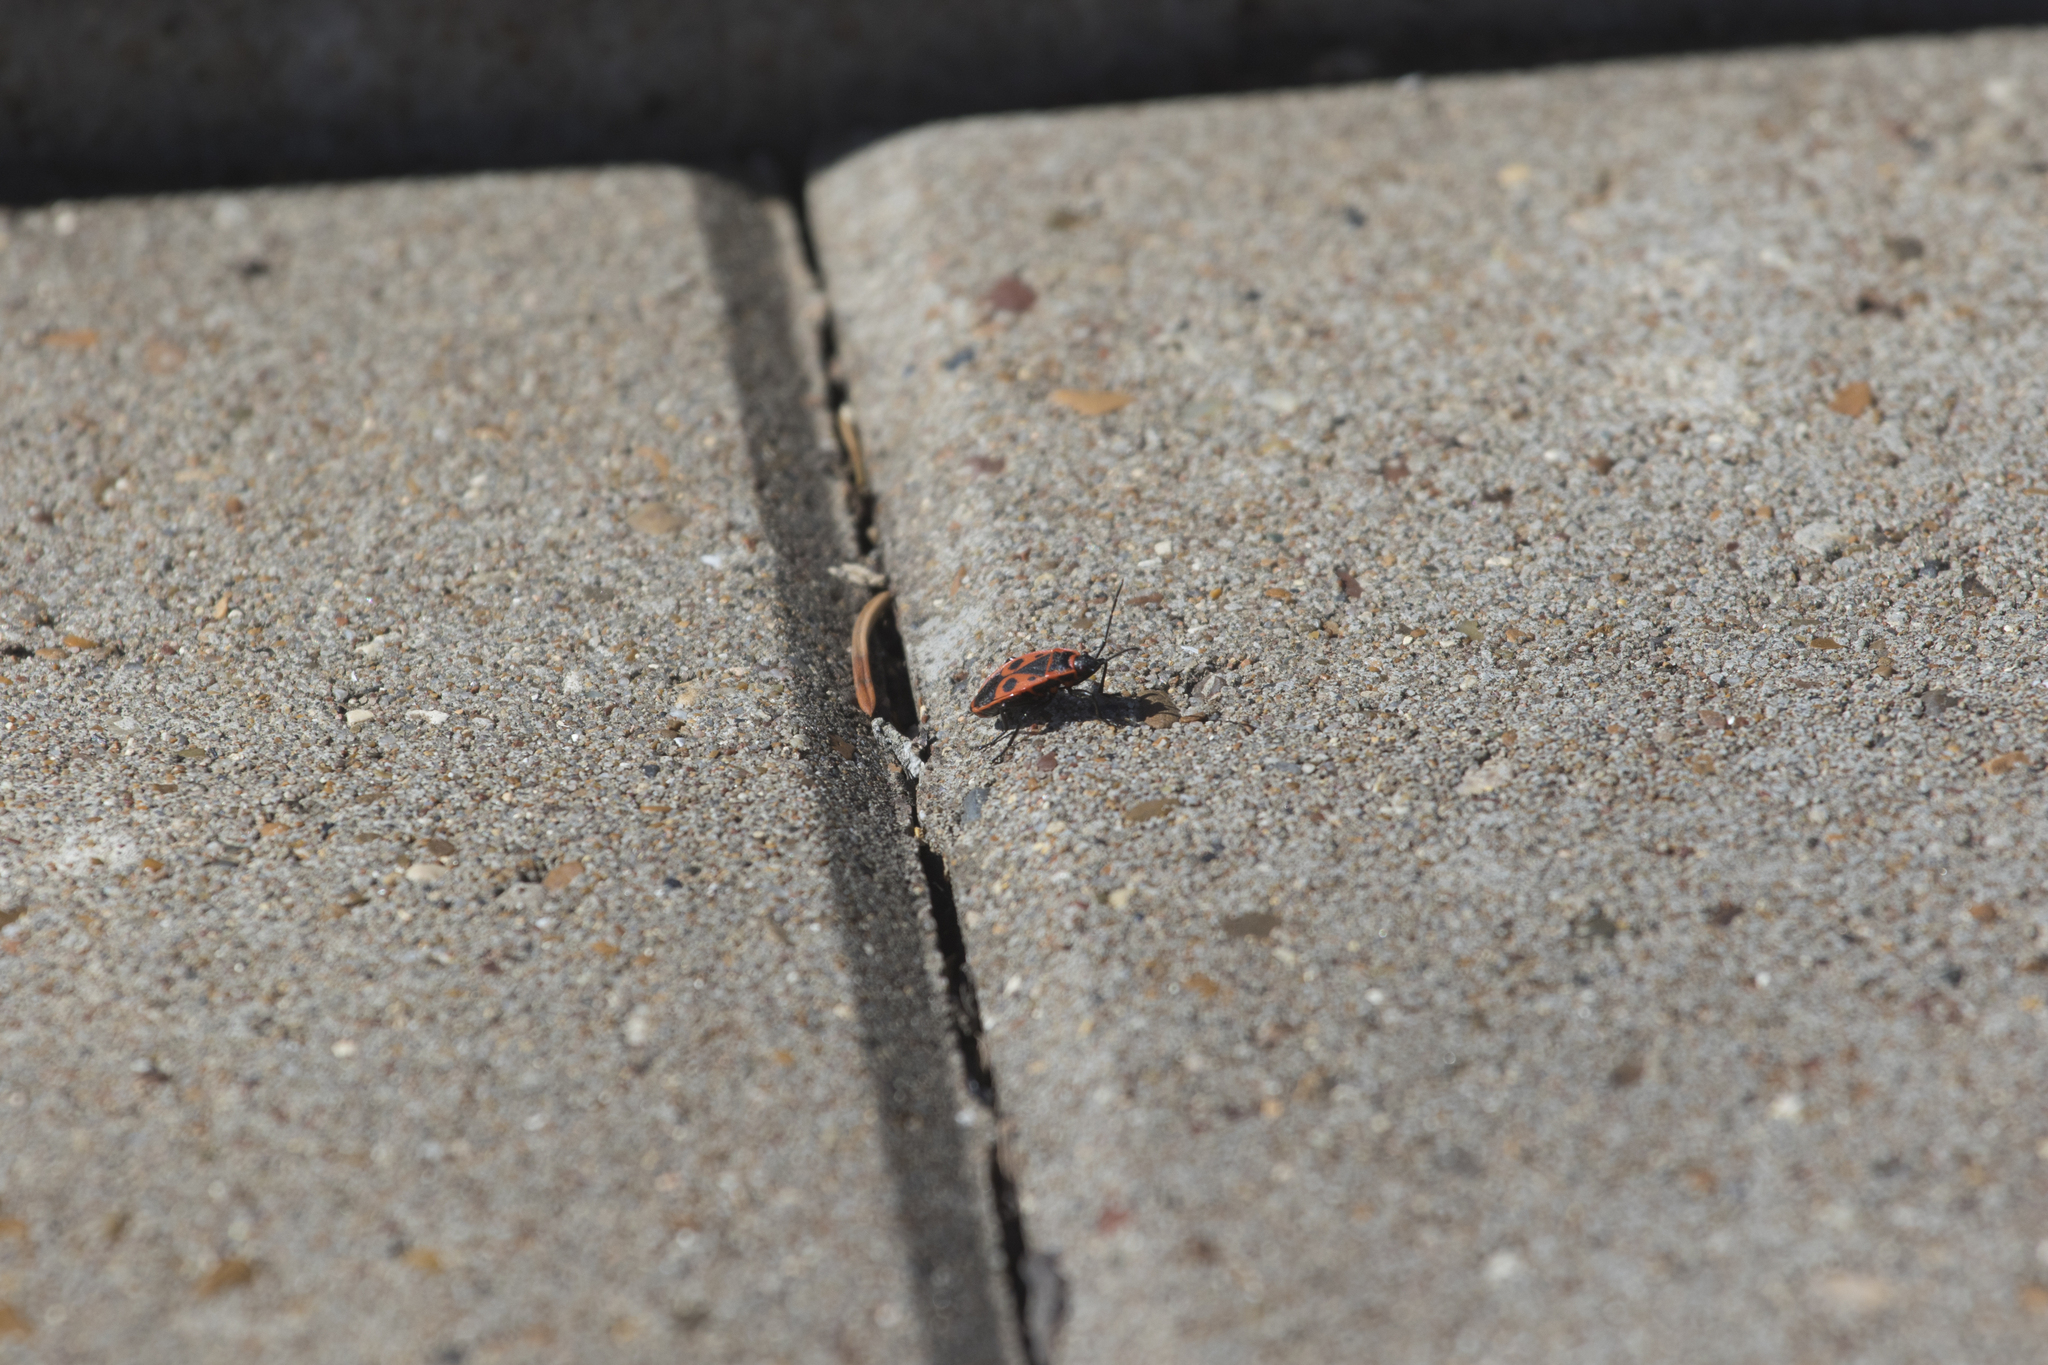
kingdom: Animalia
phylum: Arthropoda
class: Insecta
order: Hemiptera
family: Pyrrhocoridae
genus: Pyrrhocoris
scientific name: Pyrrhocoris apterus
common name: Firebug
